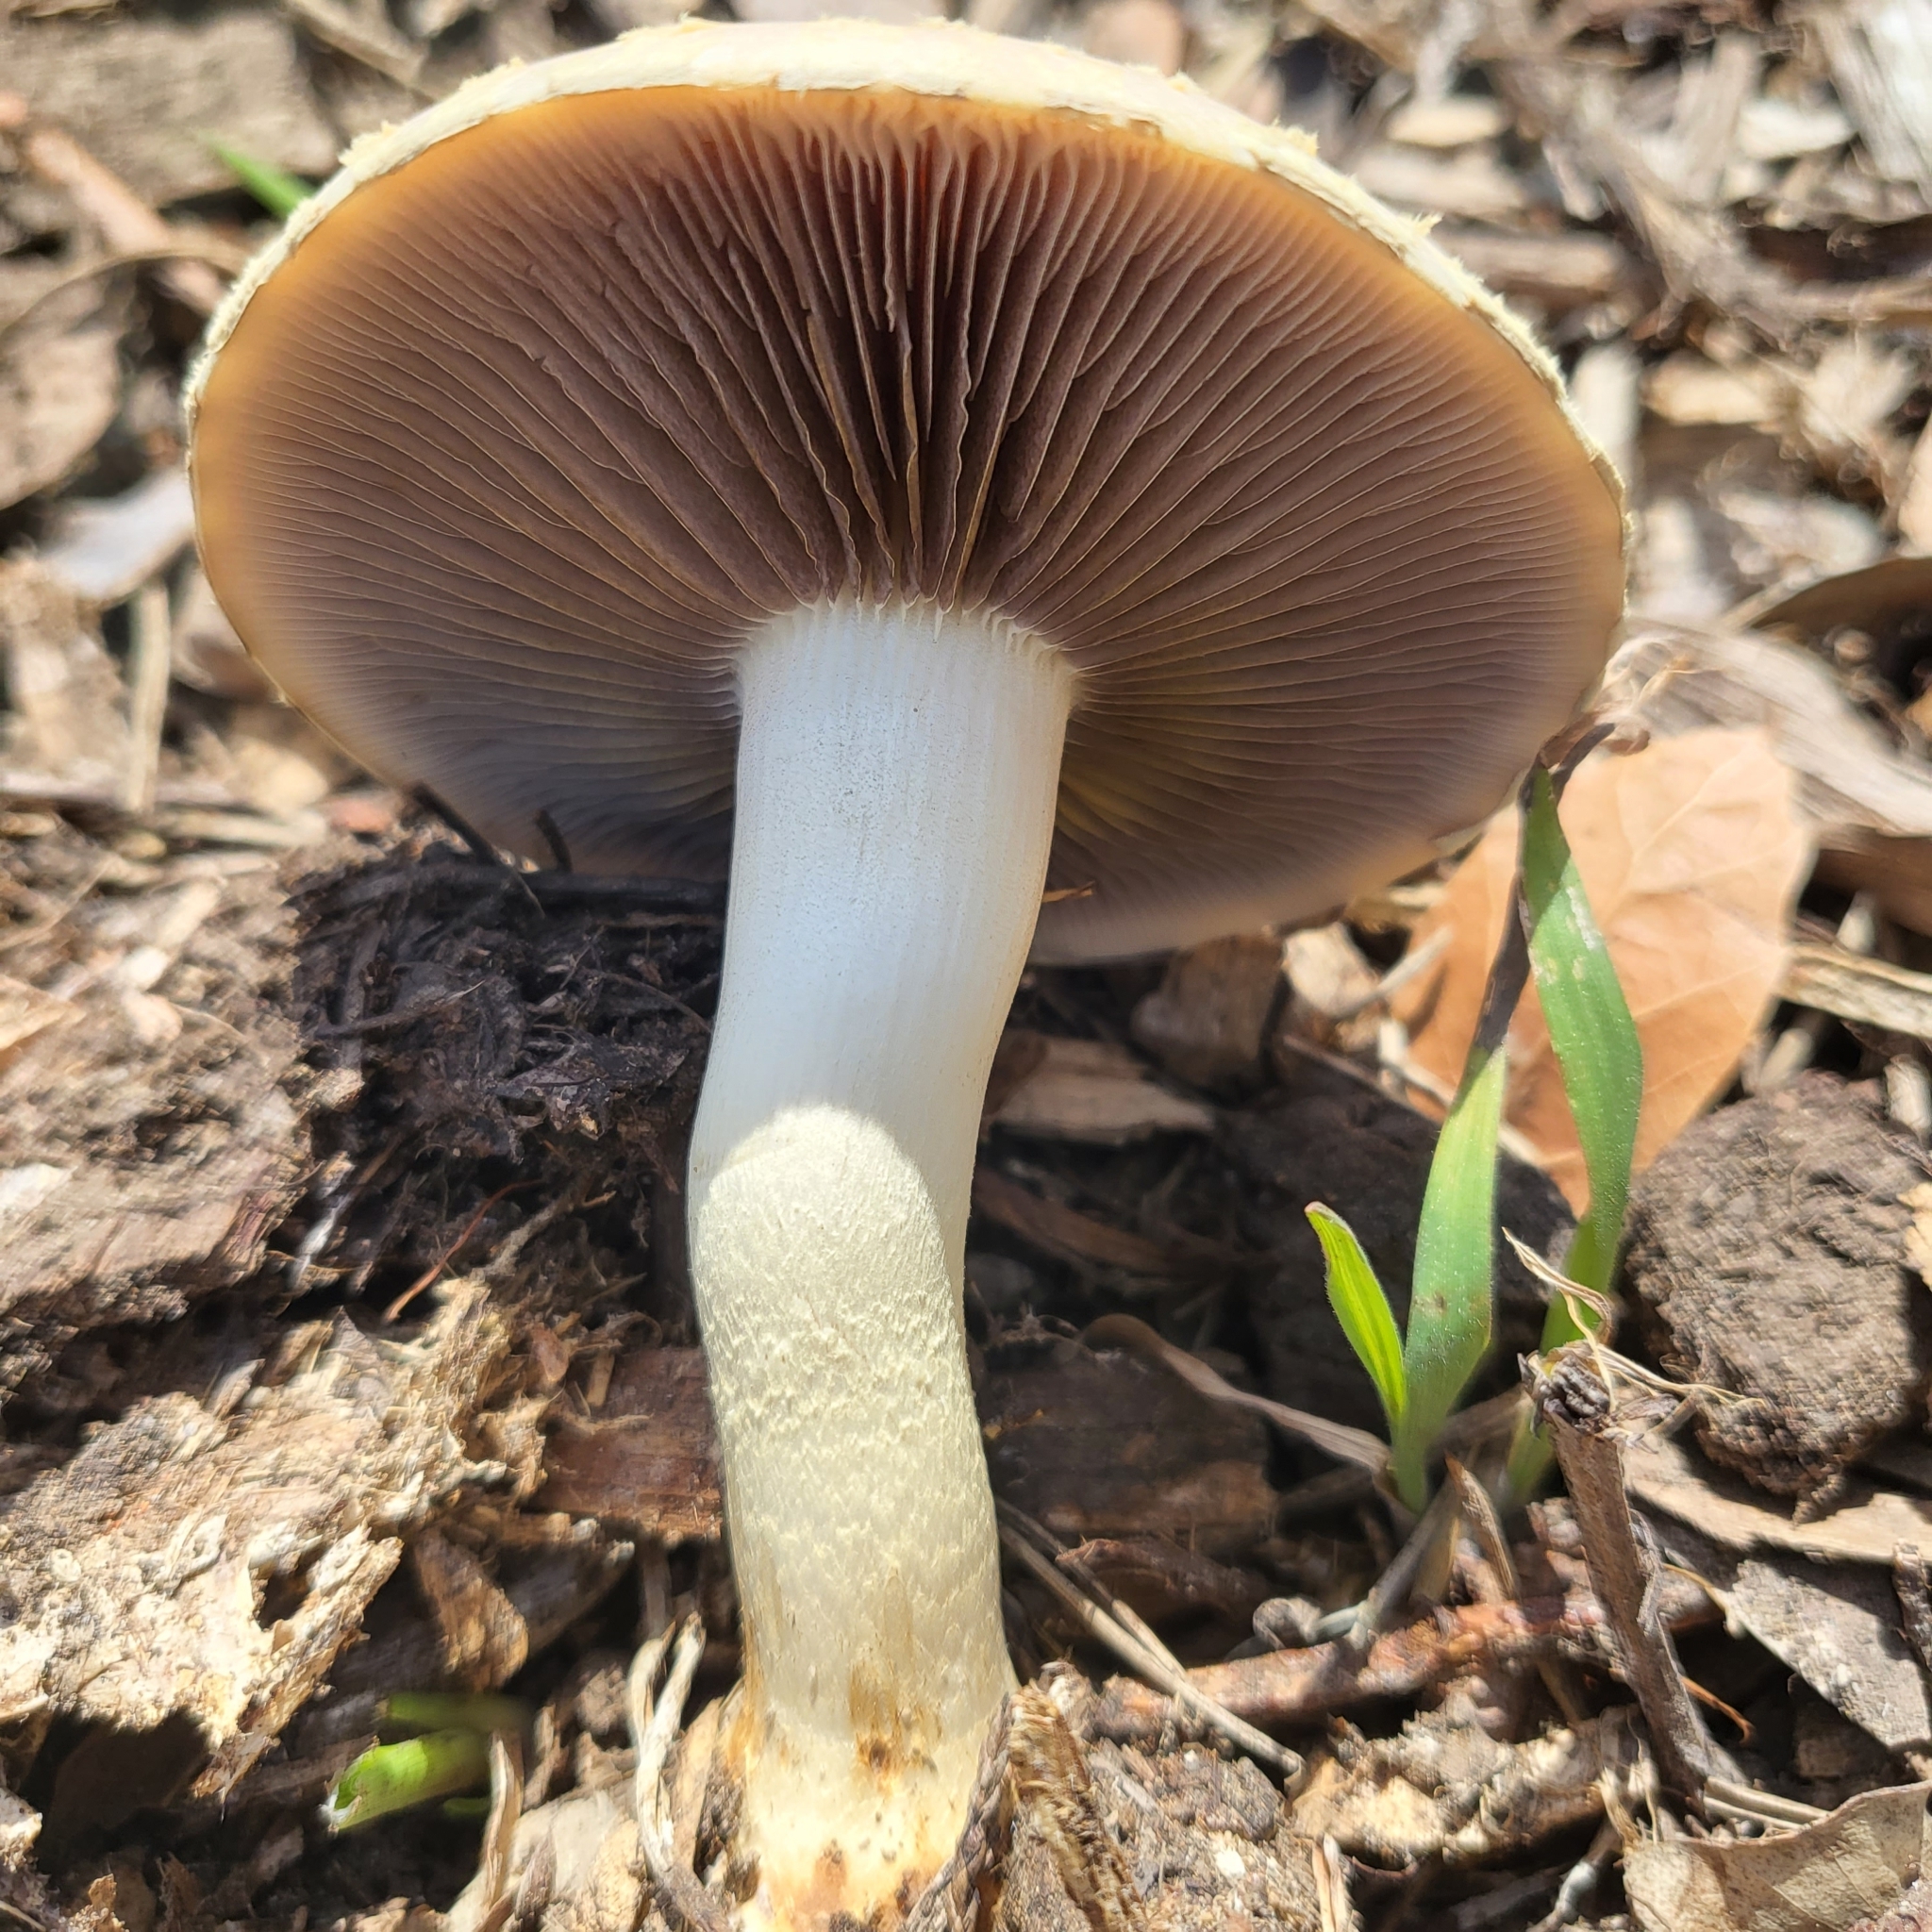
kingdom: Fungi
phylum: Basidiomycota
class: Agaricomycetes
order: Agaricales
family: Strophariaceae
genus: Leratiomyces
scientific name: Leratiomyces percevalii
